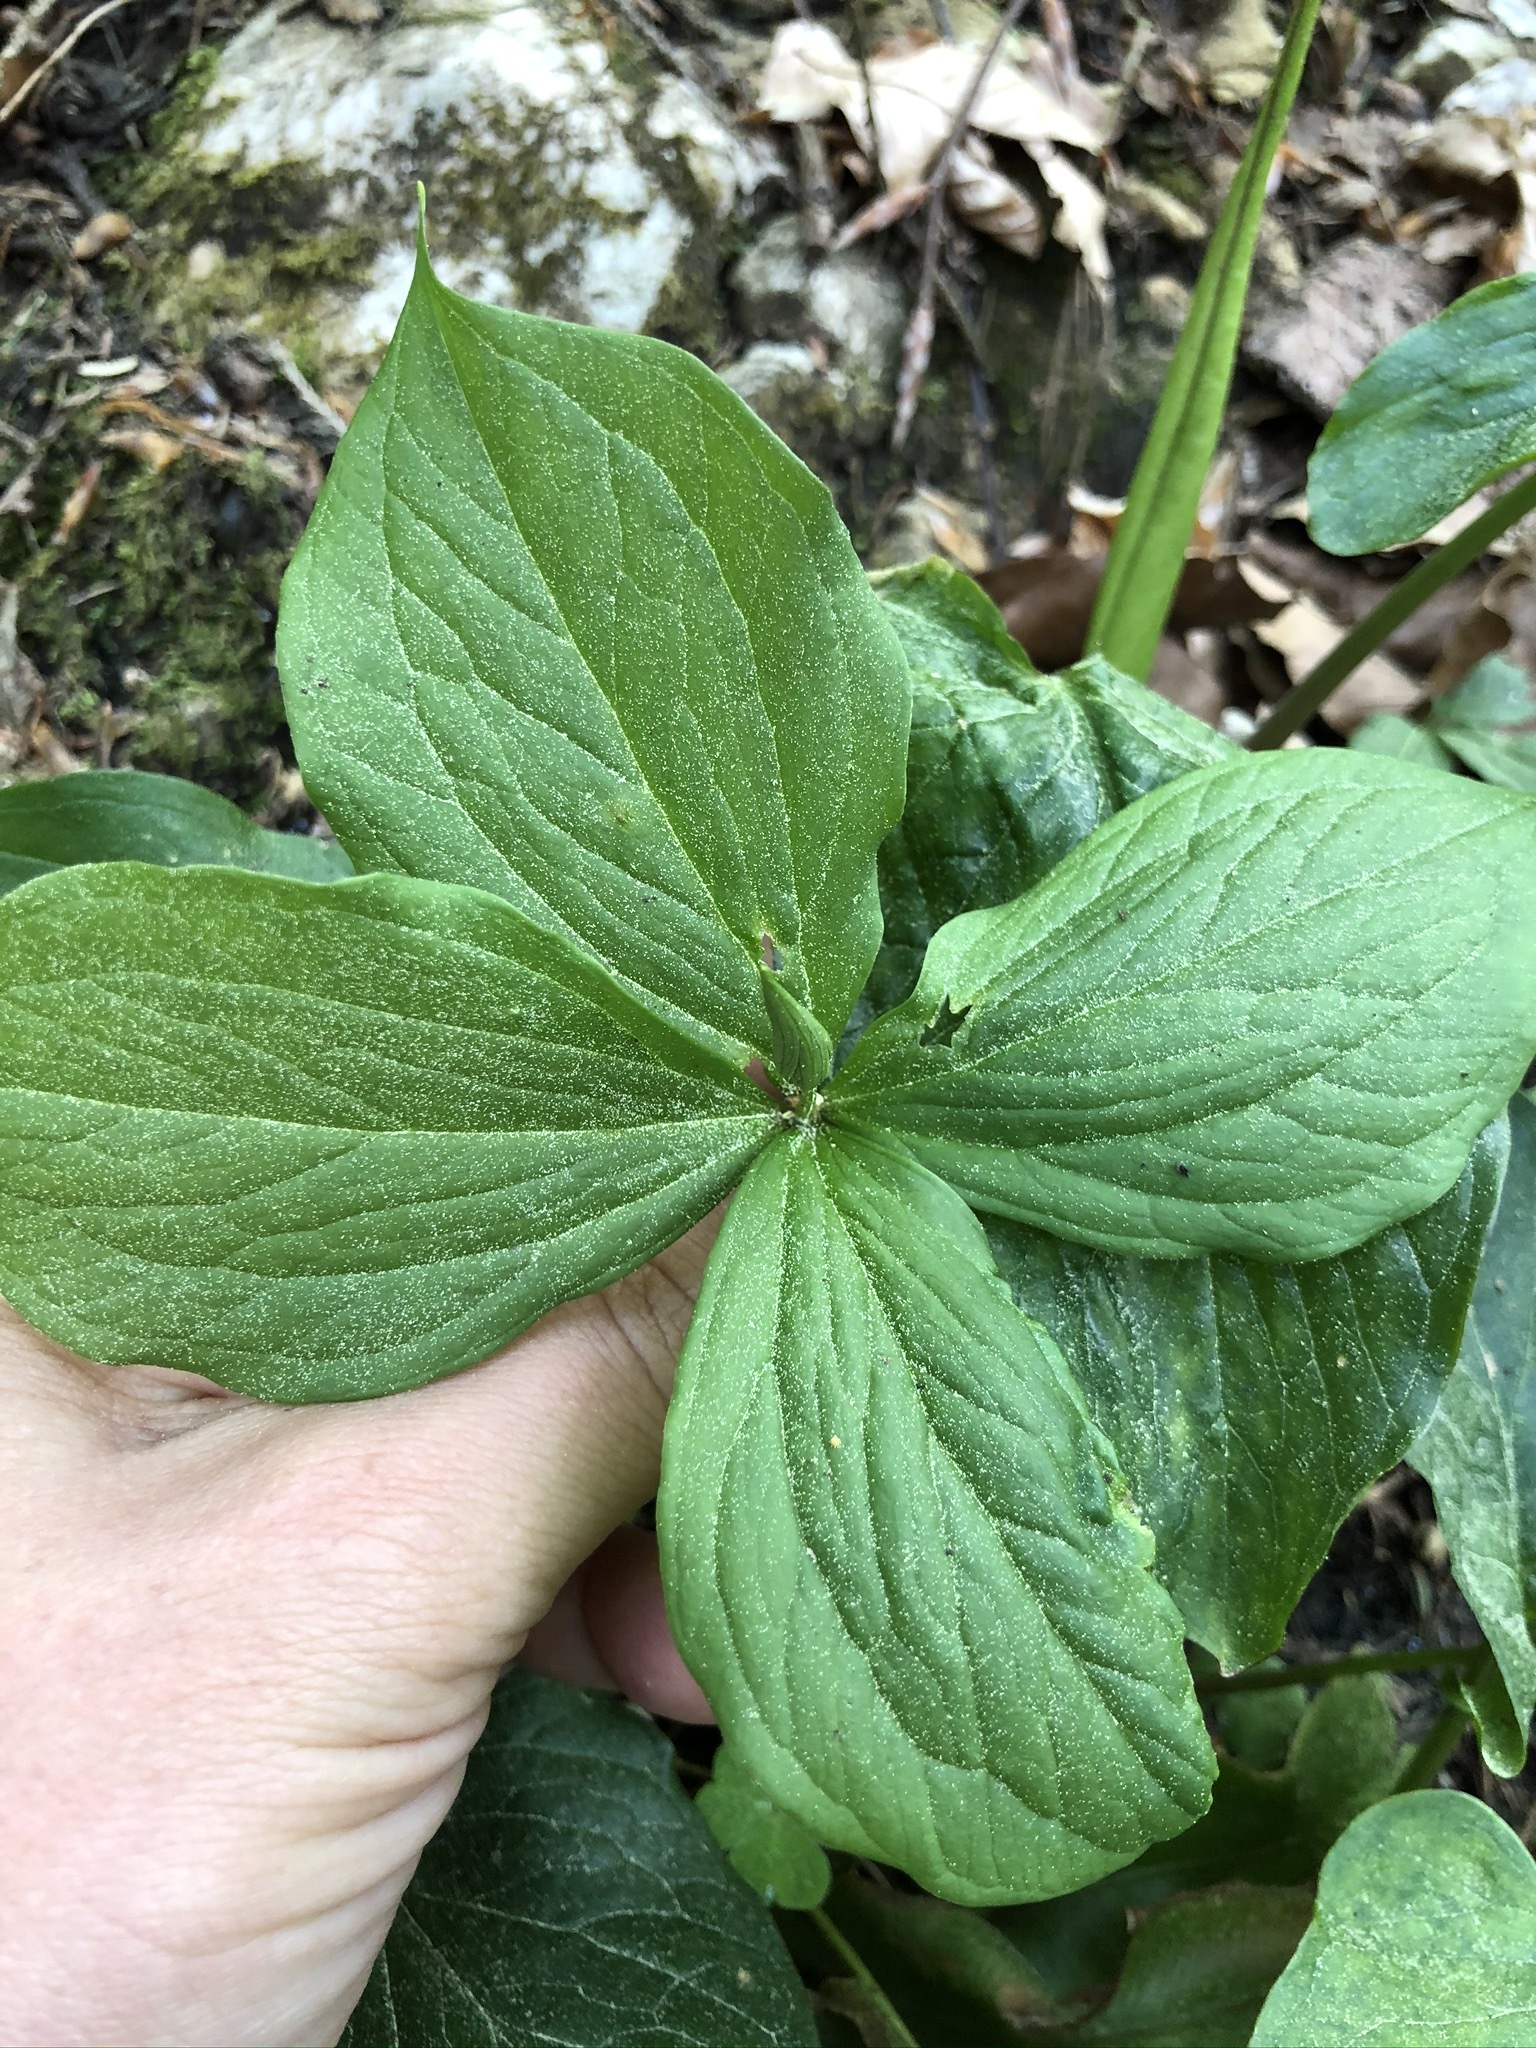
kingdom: Plantae
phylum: Tracheophyta
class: Liliopsida
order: Liliales
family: Melanthiaceae
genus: Paris
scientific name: Paris quadrifolia
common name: Herb-paris
